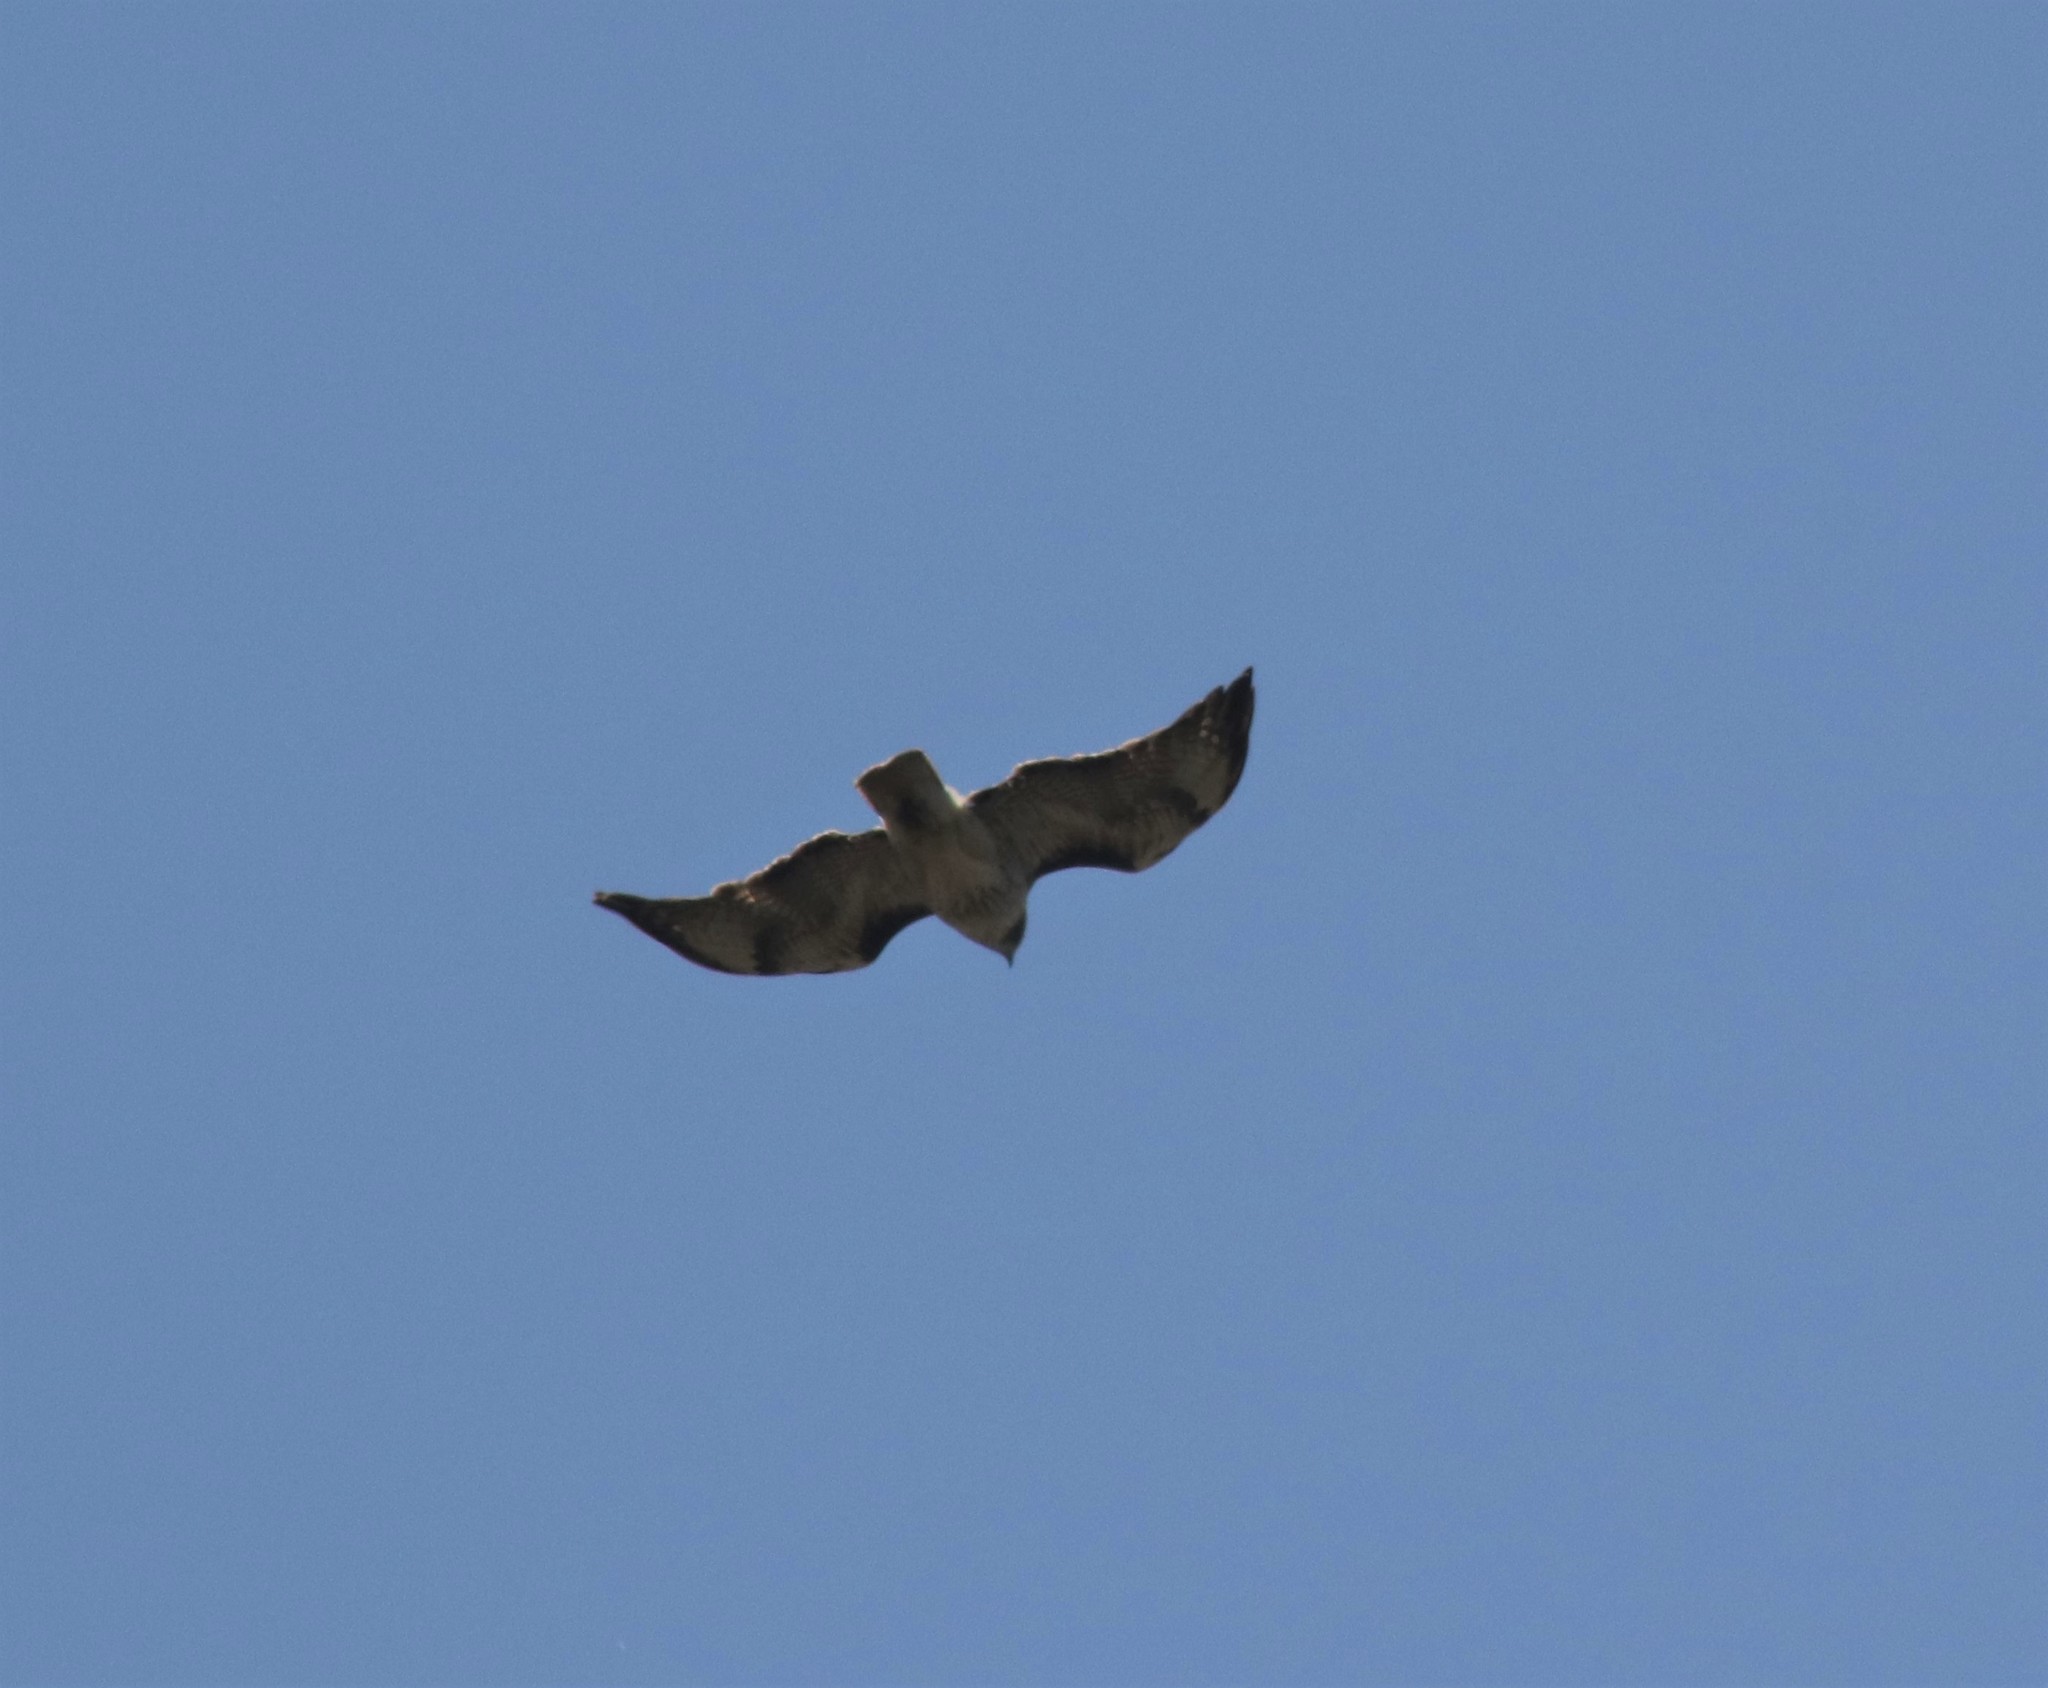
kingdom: Animalia
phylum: Chordata
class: Aves
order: Accipitriformes
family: Accipitridae
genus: Buteo
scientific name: Buteo jamaicensis
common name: Red-tailed hawk
